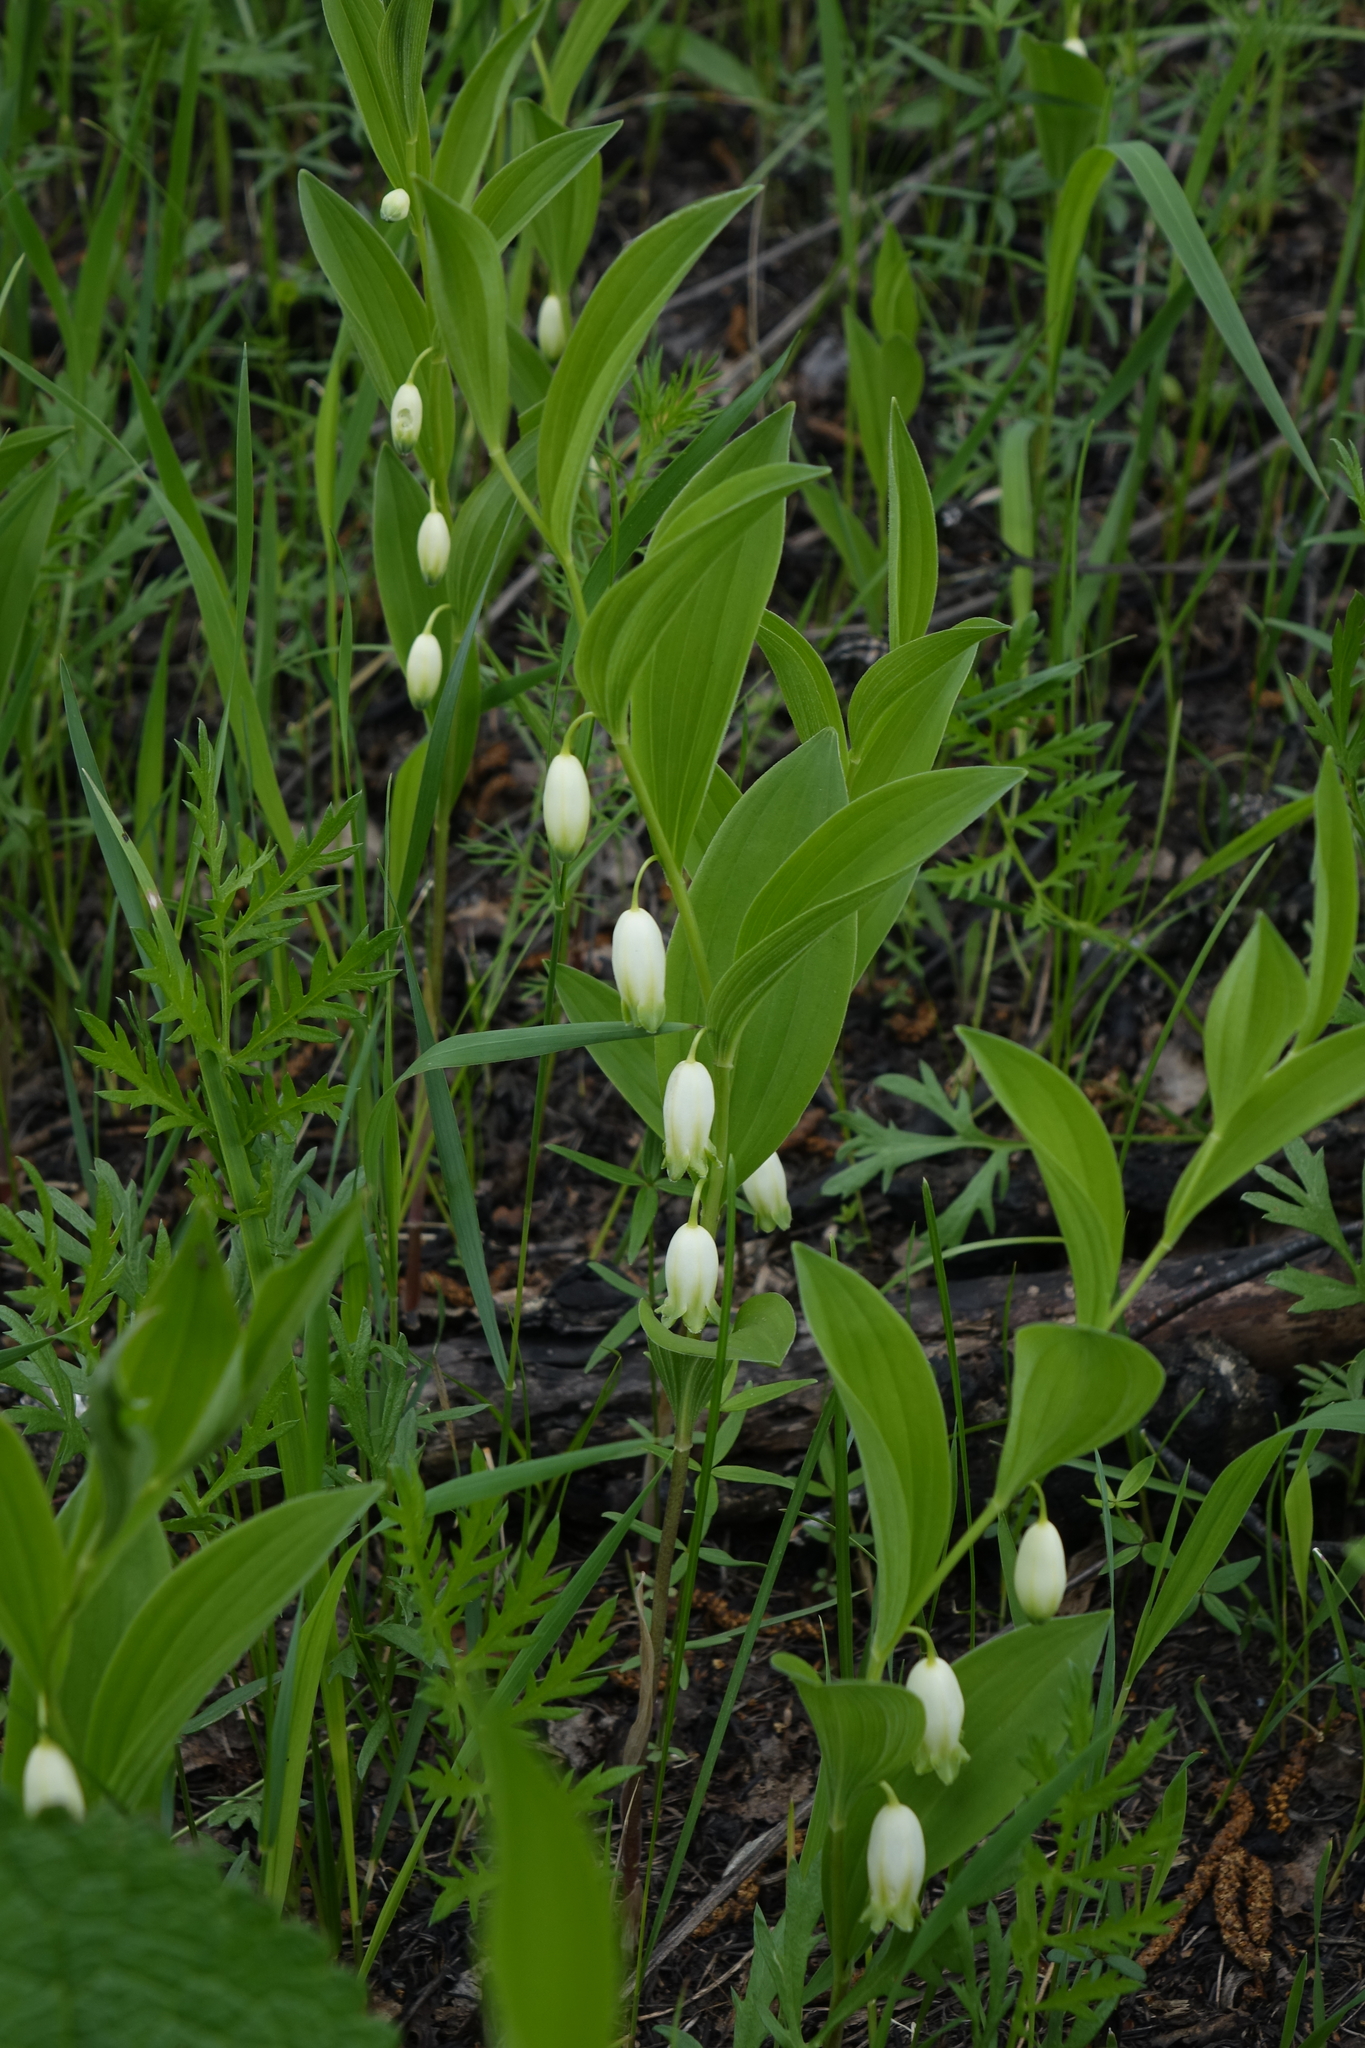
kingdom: Plantae
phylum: Tracheophyta
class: Liliopsida
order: Asparagales
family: Asparagaceae
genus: Polygonatum
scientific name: Polygonatum humile
